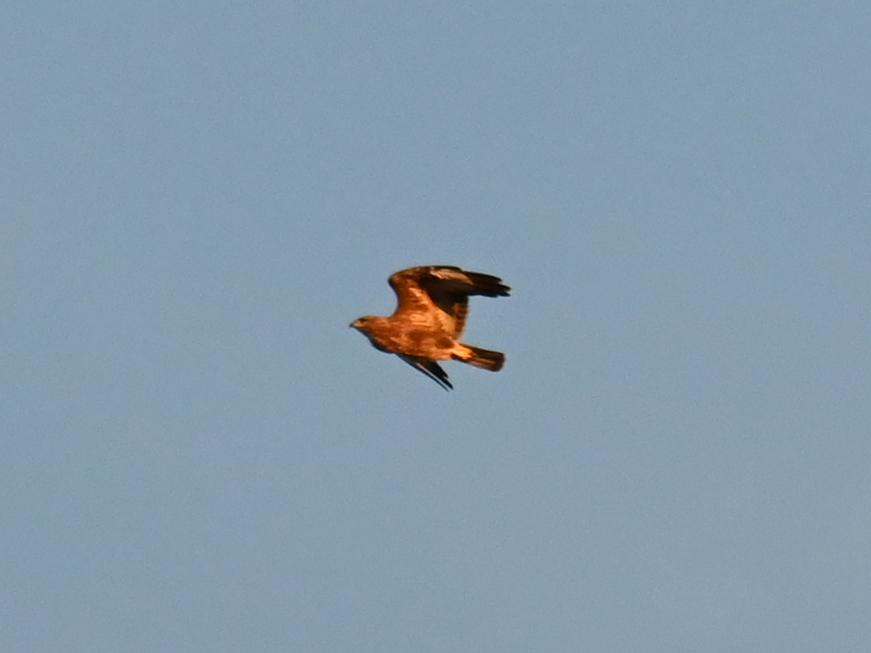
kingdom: Animalia
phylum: Chordata
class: Aves
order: Accipitriformes
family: Accipitridae
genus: Buteo
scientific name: Buteo buteo
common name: Common buzzard
